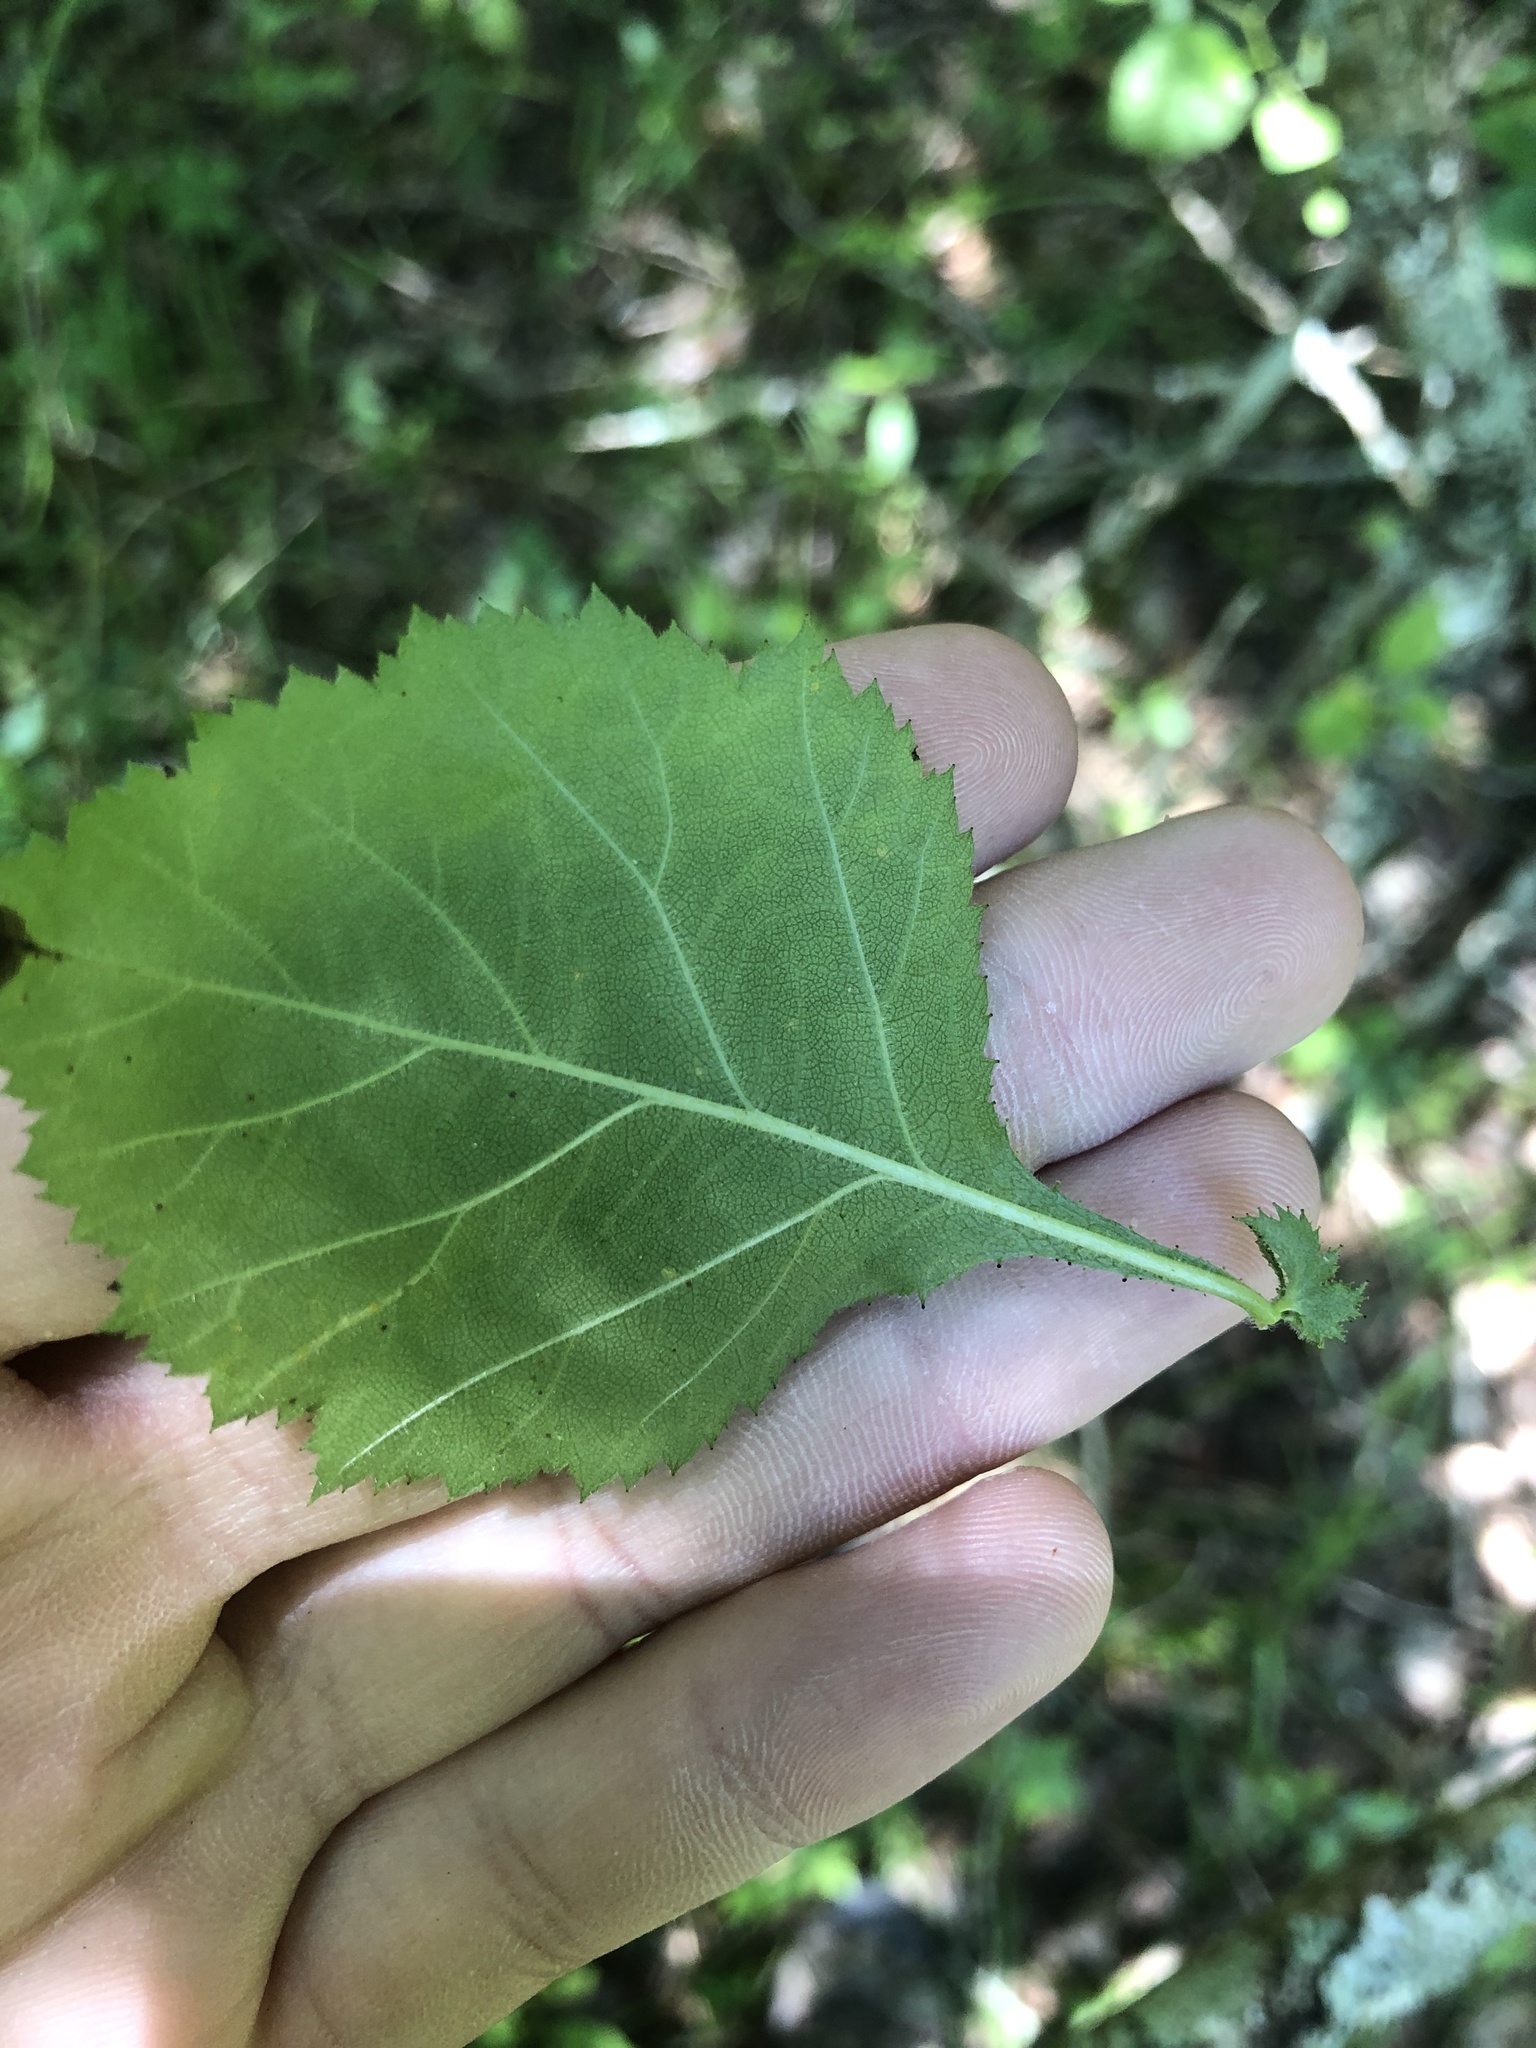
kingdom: Plantae
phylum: Tracheophyta
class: Magnoliopsida
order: Rosales
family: Rosaceae
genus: Crataegus
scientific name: Crataegus triflora
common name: Three-flower hawthorn
